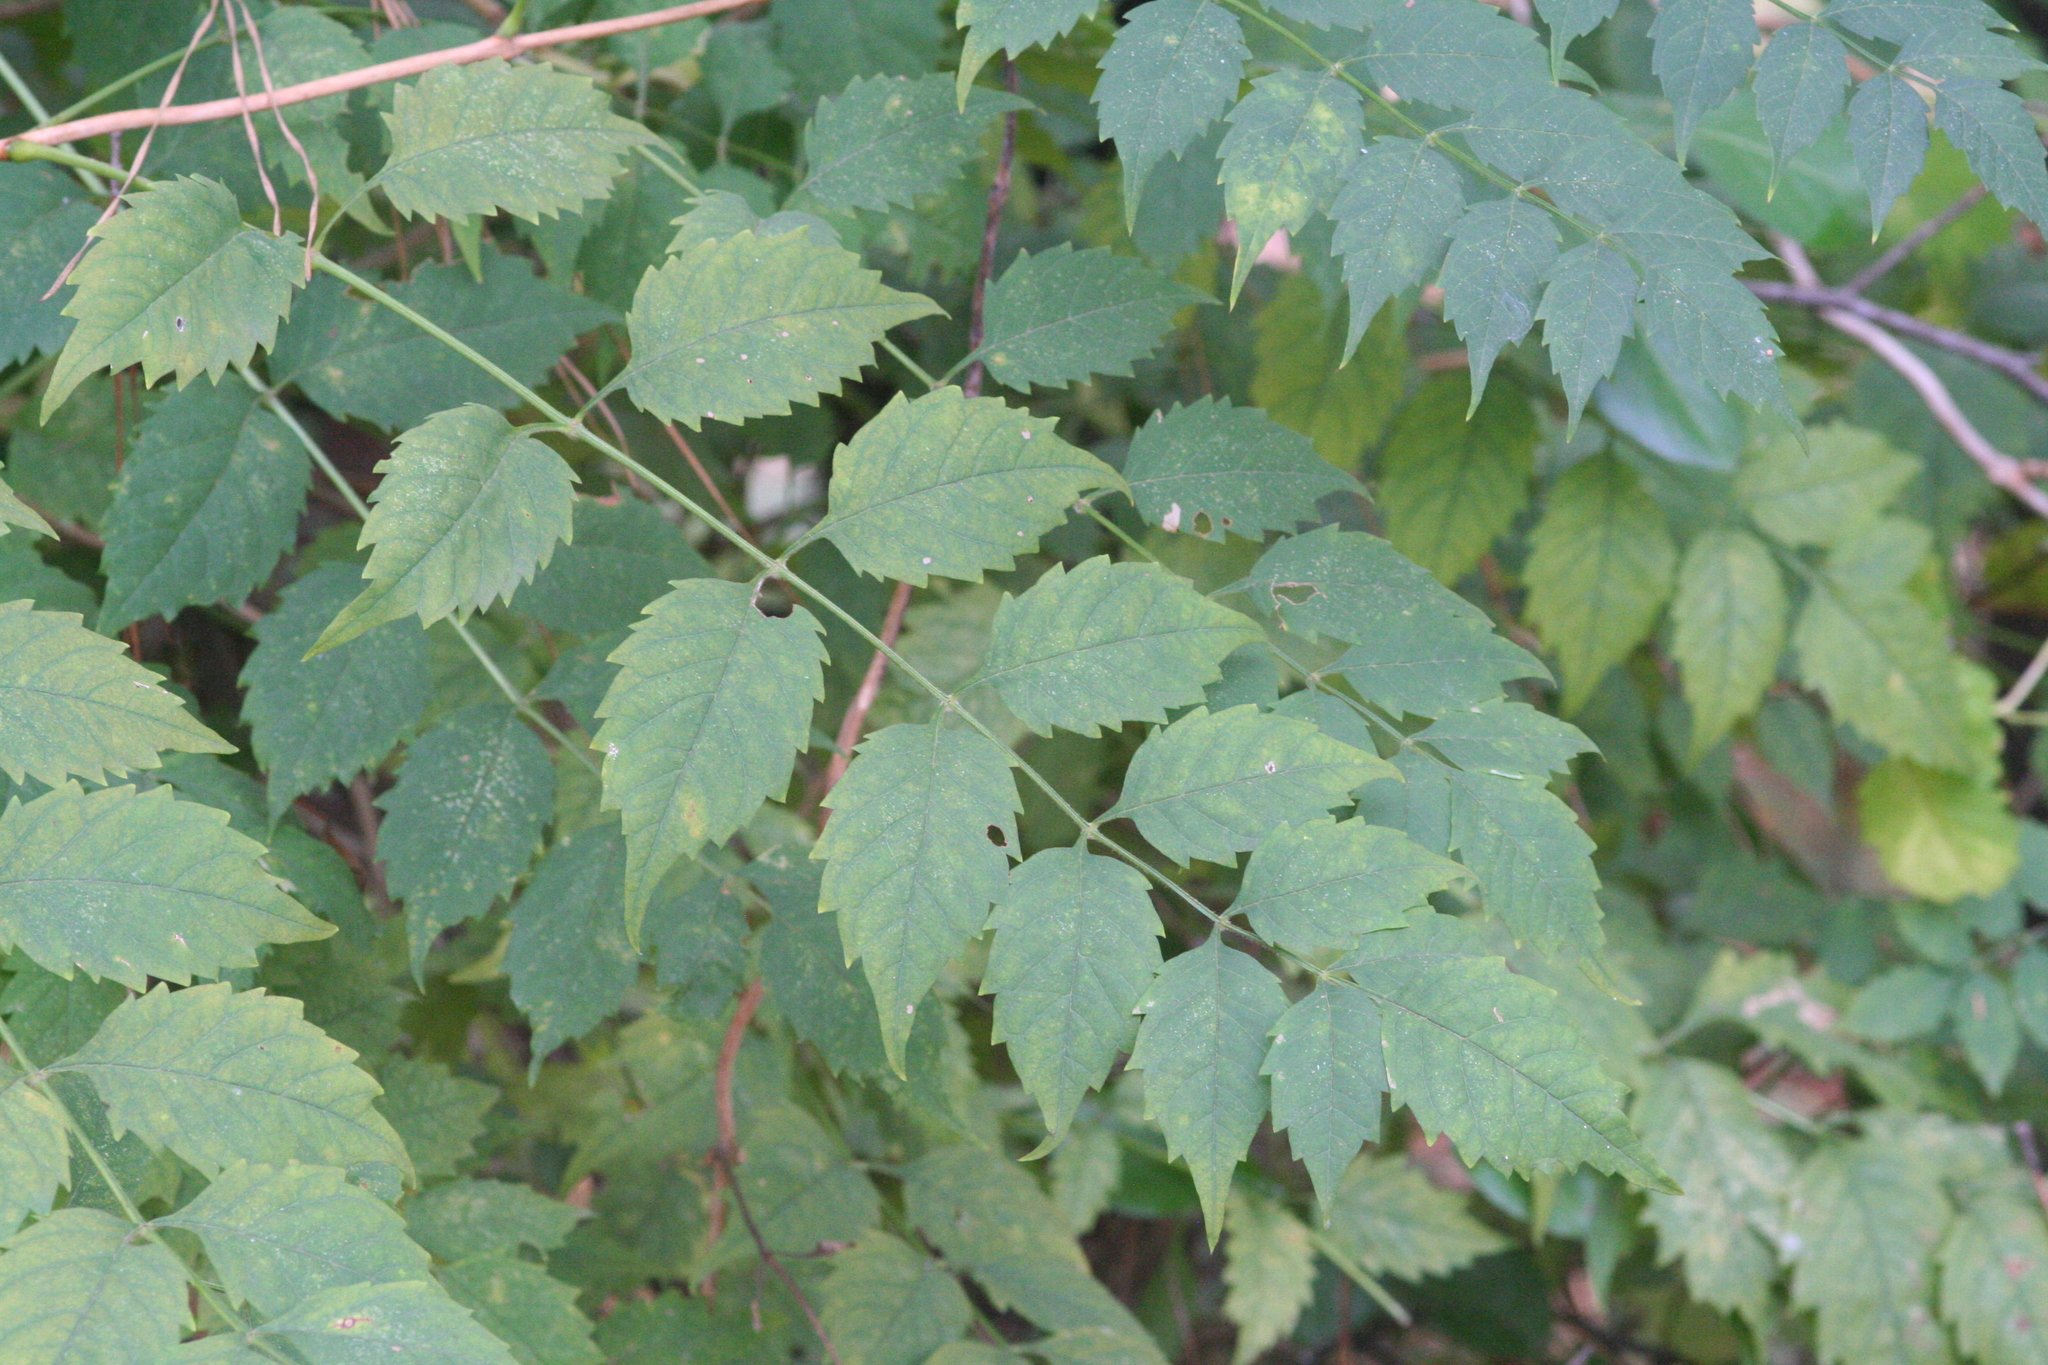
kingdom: Plantae
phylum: Tracheophyta
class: Magnoliopsida
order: Lamiales
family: Bignoniaceae
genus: Campsis
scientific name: Campsis radicans
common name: Trumpet-creeper
